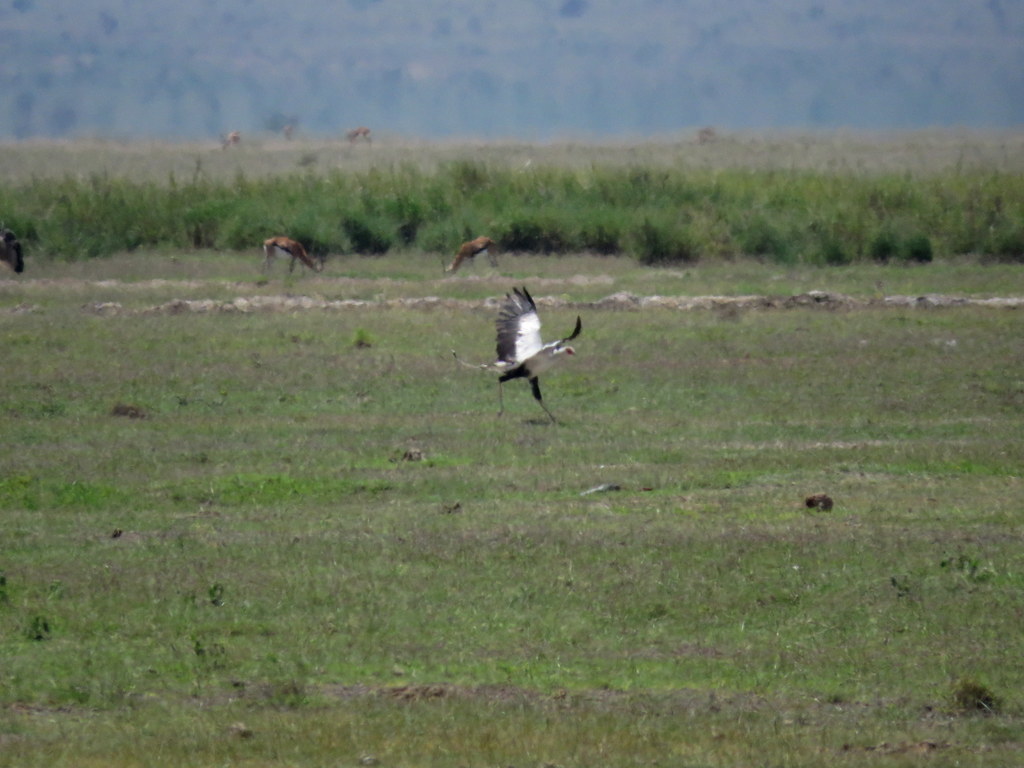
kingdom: Animalia
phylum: Chordata
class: Aves
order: Accipitriformes
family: Sagittariidae
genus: Sagittarius
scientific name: Sagittarius serpentarius
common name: Secretarybird
